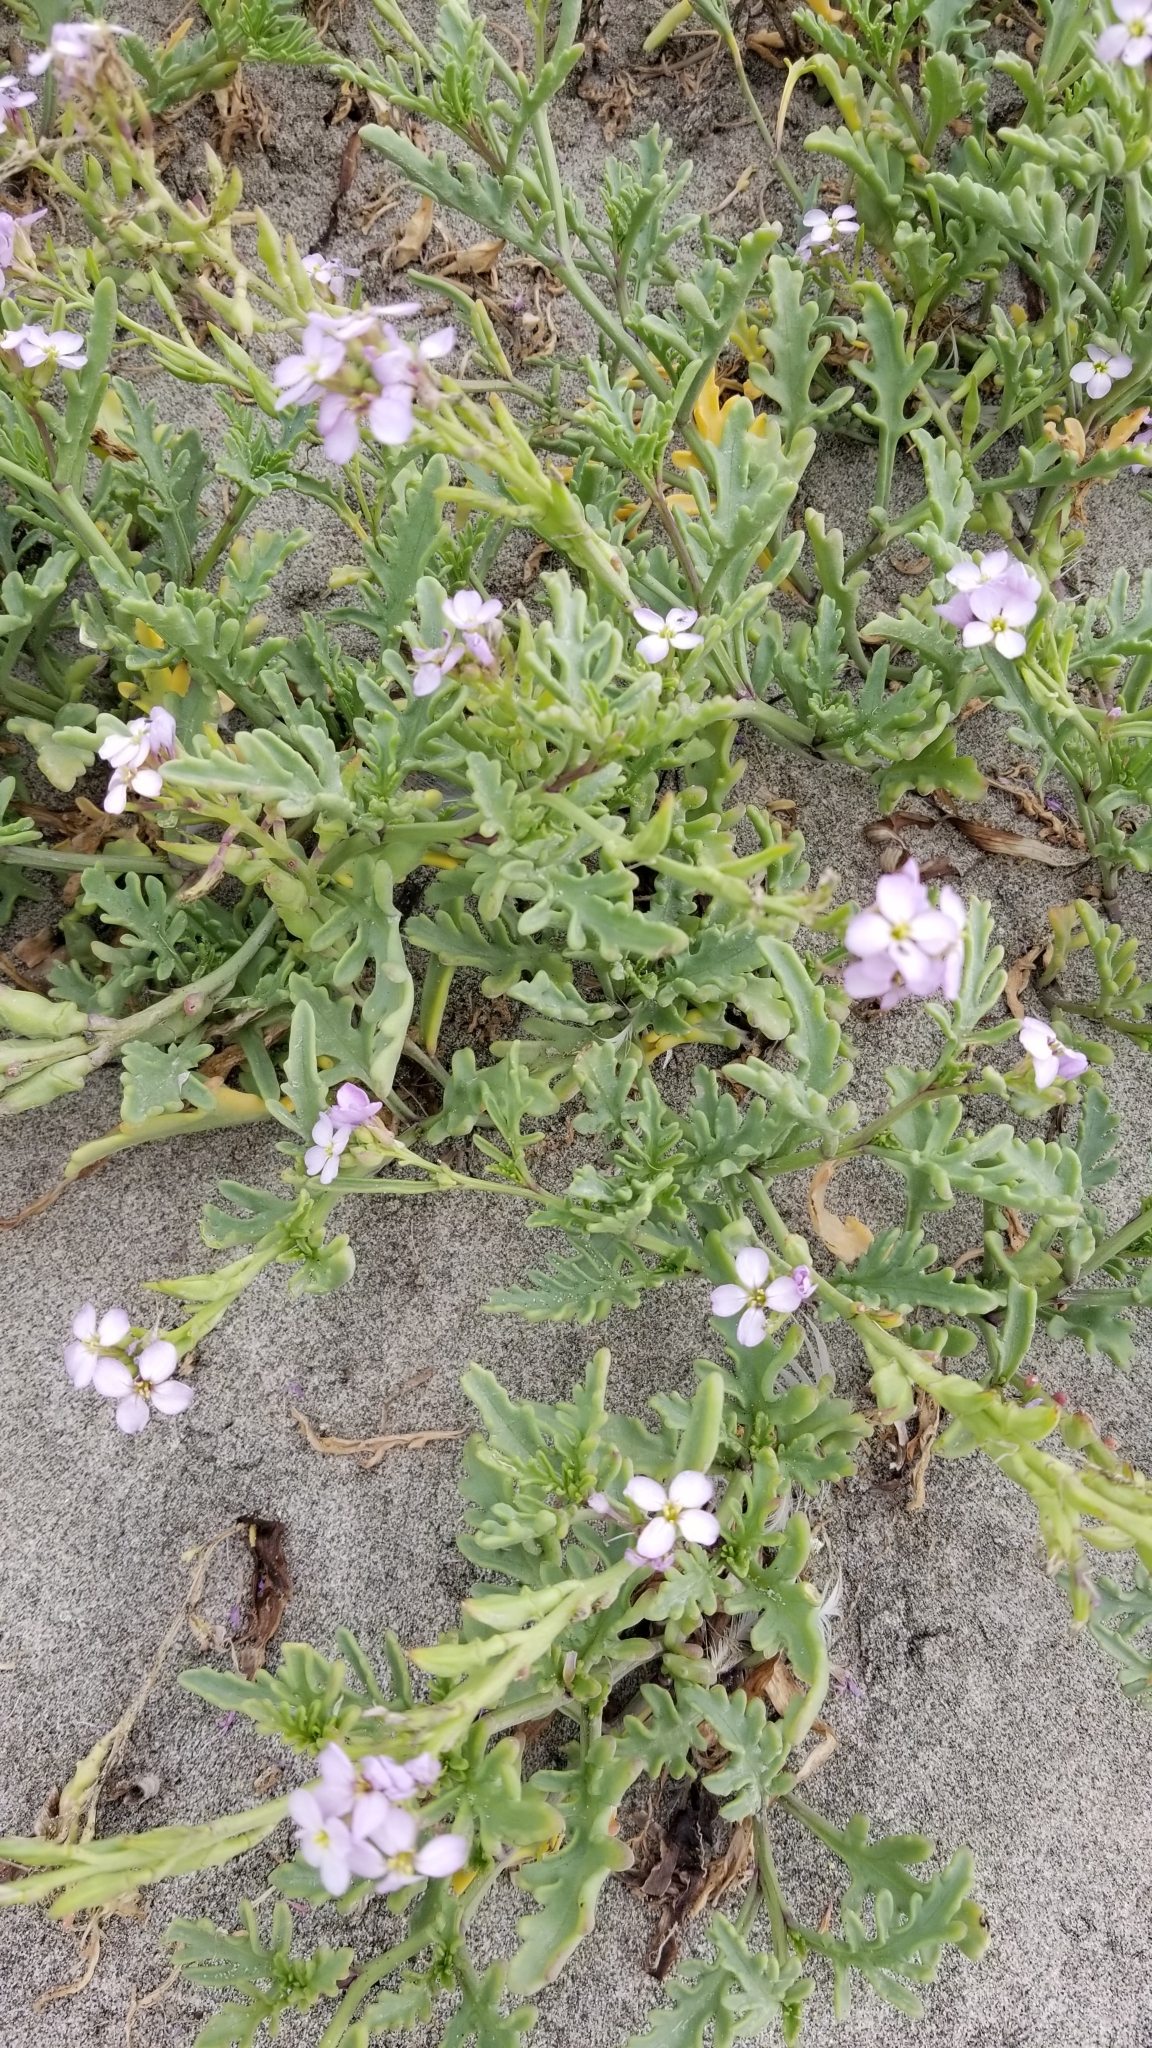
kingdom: Plantae
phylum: Tracheophyta
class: Magnoliopsida
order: Brassicales
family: Brassicaceae
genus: Cakile
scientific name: Cakile maritima
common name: Sea rocket
